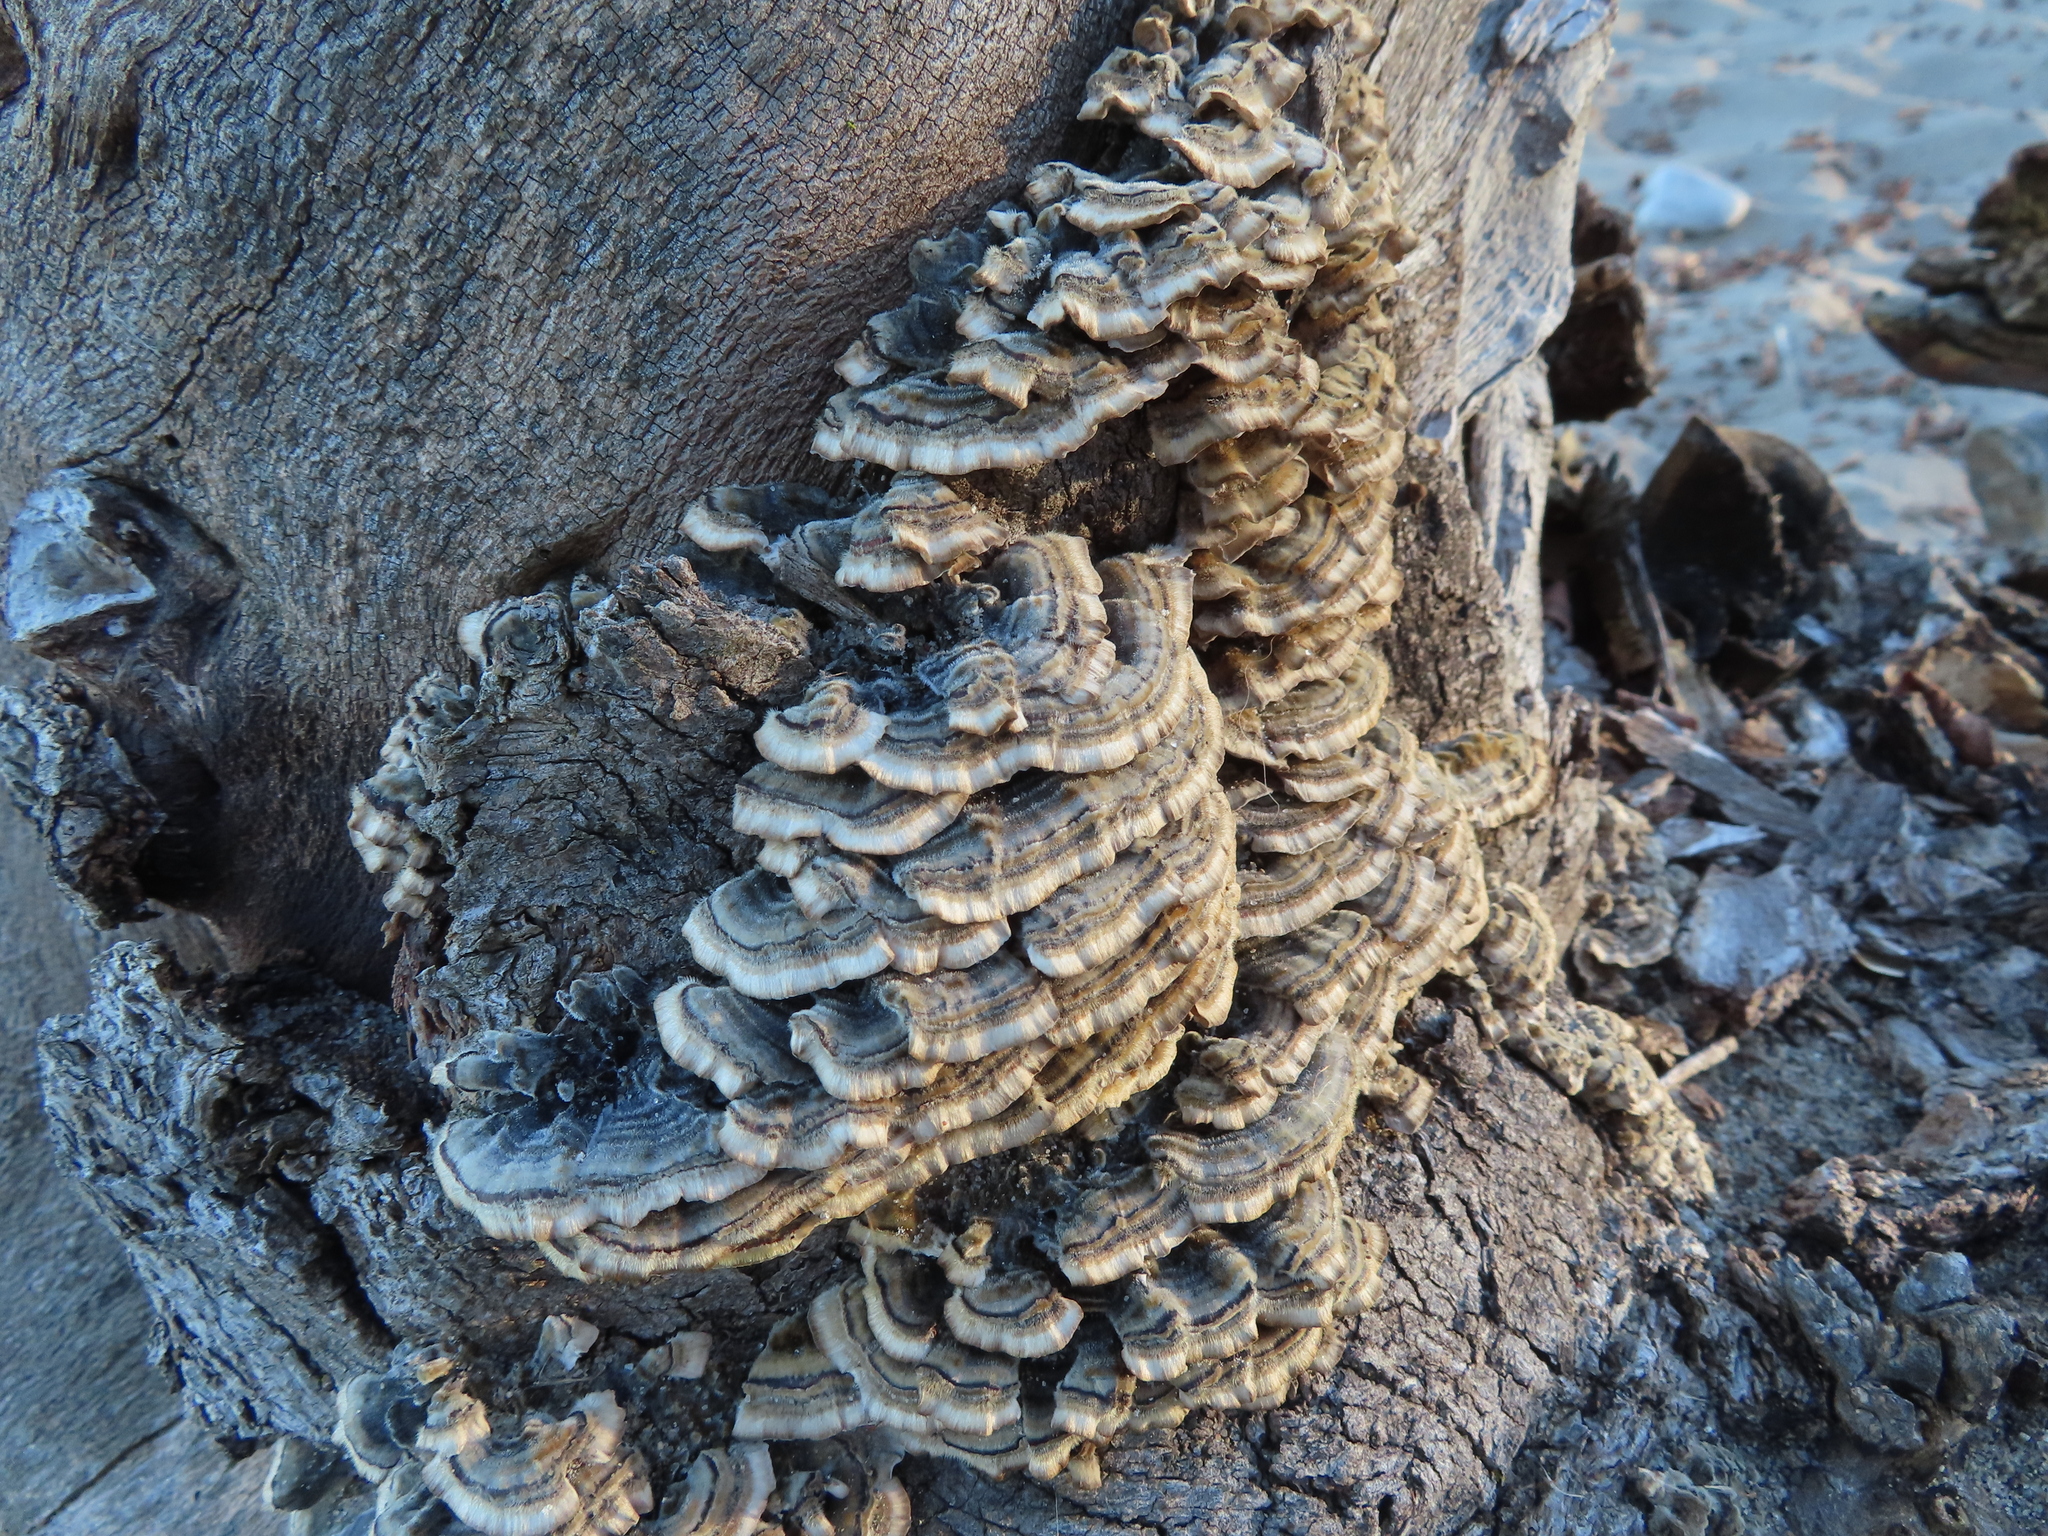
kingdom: Fungi
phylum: Basidiomycota
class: Agaricomycetes
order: Polyporales
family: Polyporaceae
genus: Trametes
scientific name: Trametes versicolor
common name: Turkeytail
